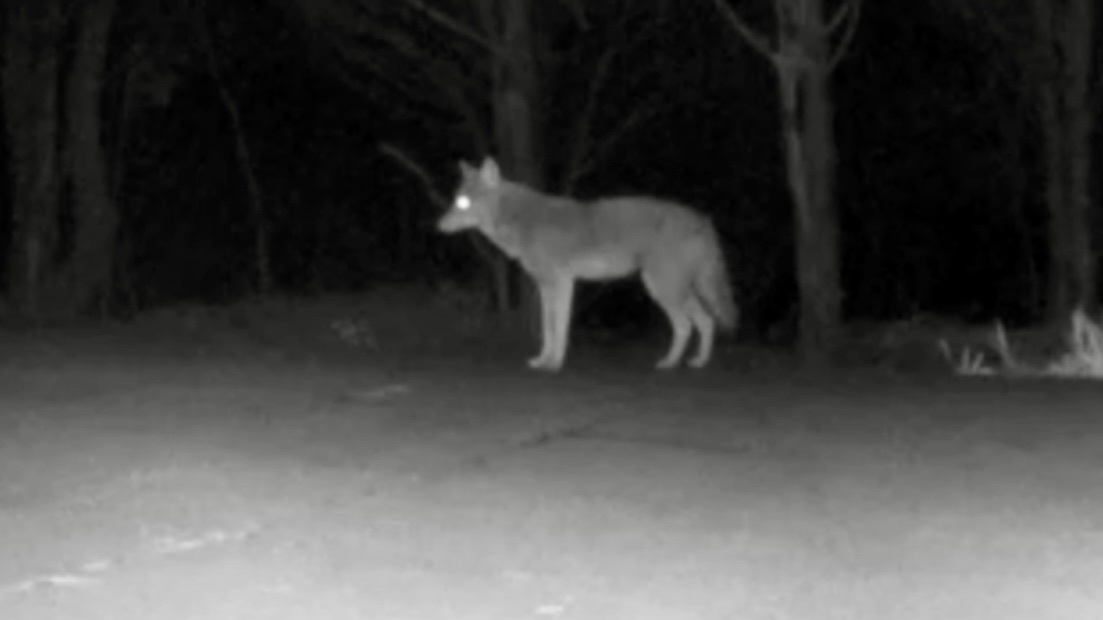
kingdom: Animalia
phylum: Chordata
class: Mammalia
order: Carnivora
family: Canidae
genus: Canis
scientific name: Canis latrans
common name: Coyote
